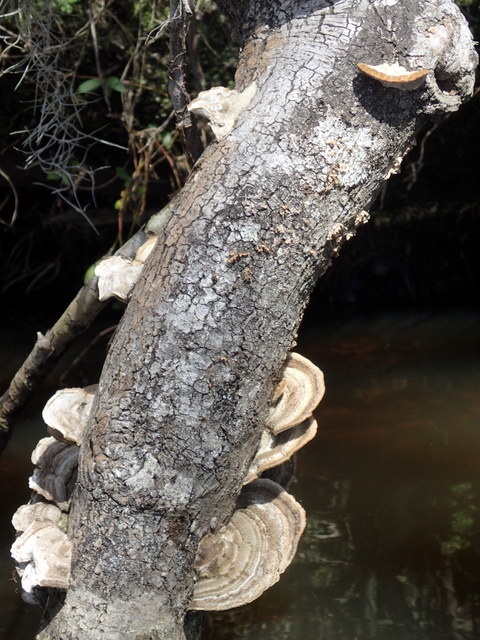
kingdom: Fungi
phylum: Basidiomycota
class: Agaricomycetes
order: Polyporales
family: Polyporaceae
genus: Trametes
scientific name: Trametes lactinea
